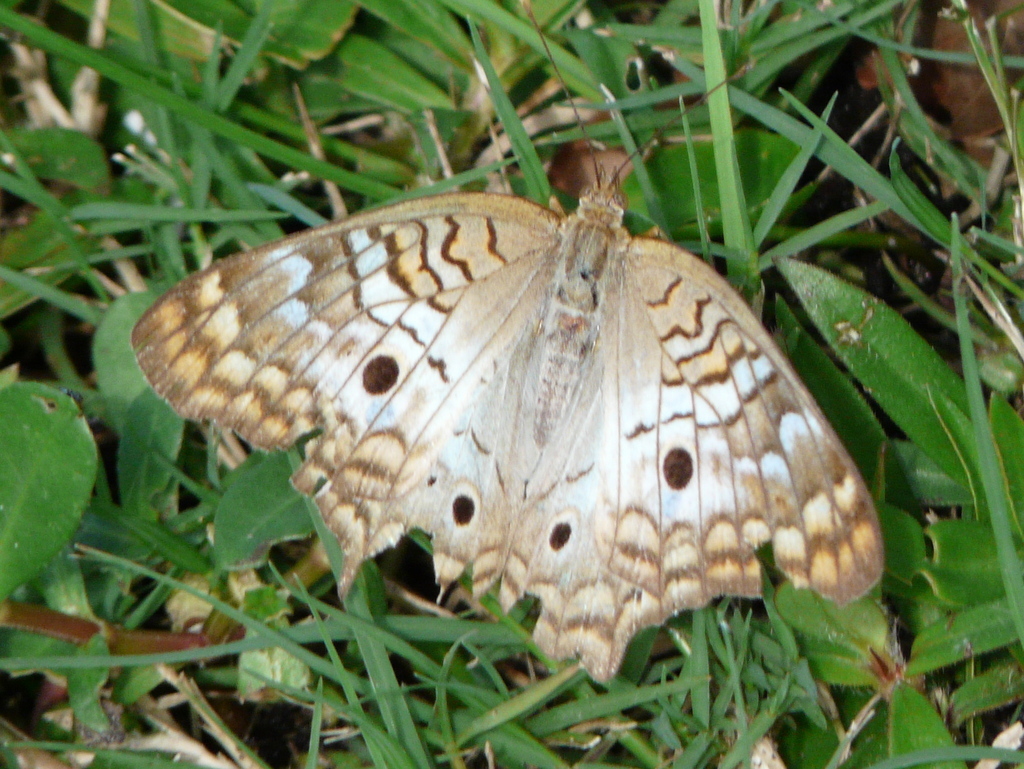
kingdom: Animalia
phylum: Arthropoda
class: Insecta
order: Lepidoptera
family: Nymphalidae
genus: Anartia
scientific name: Anartia jatrophae
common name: White peacock
